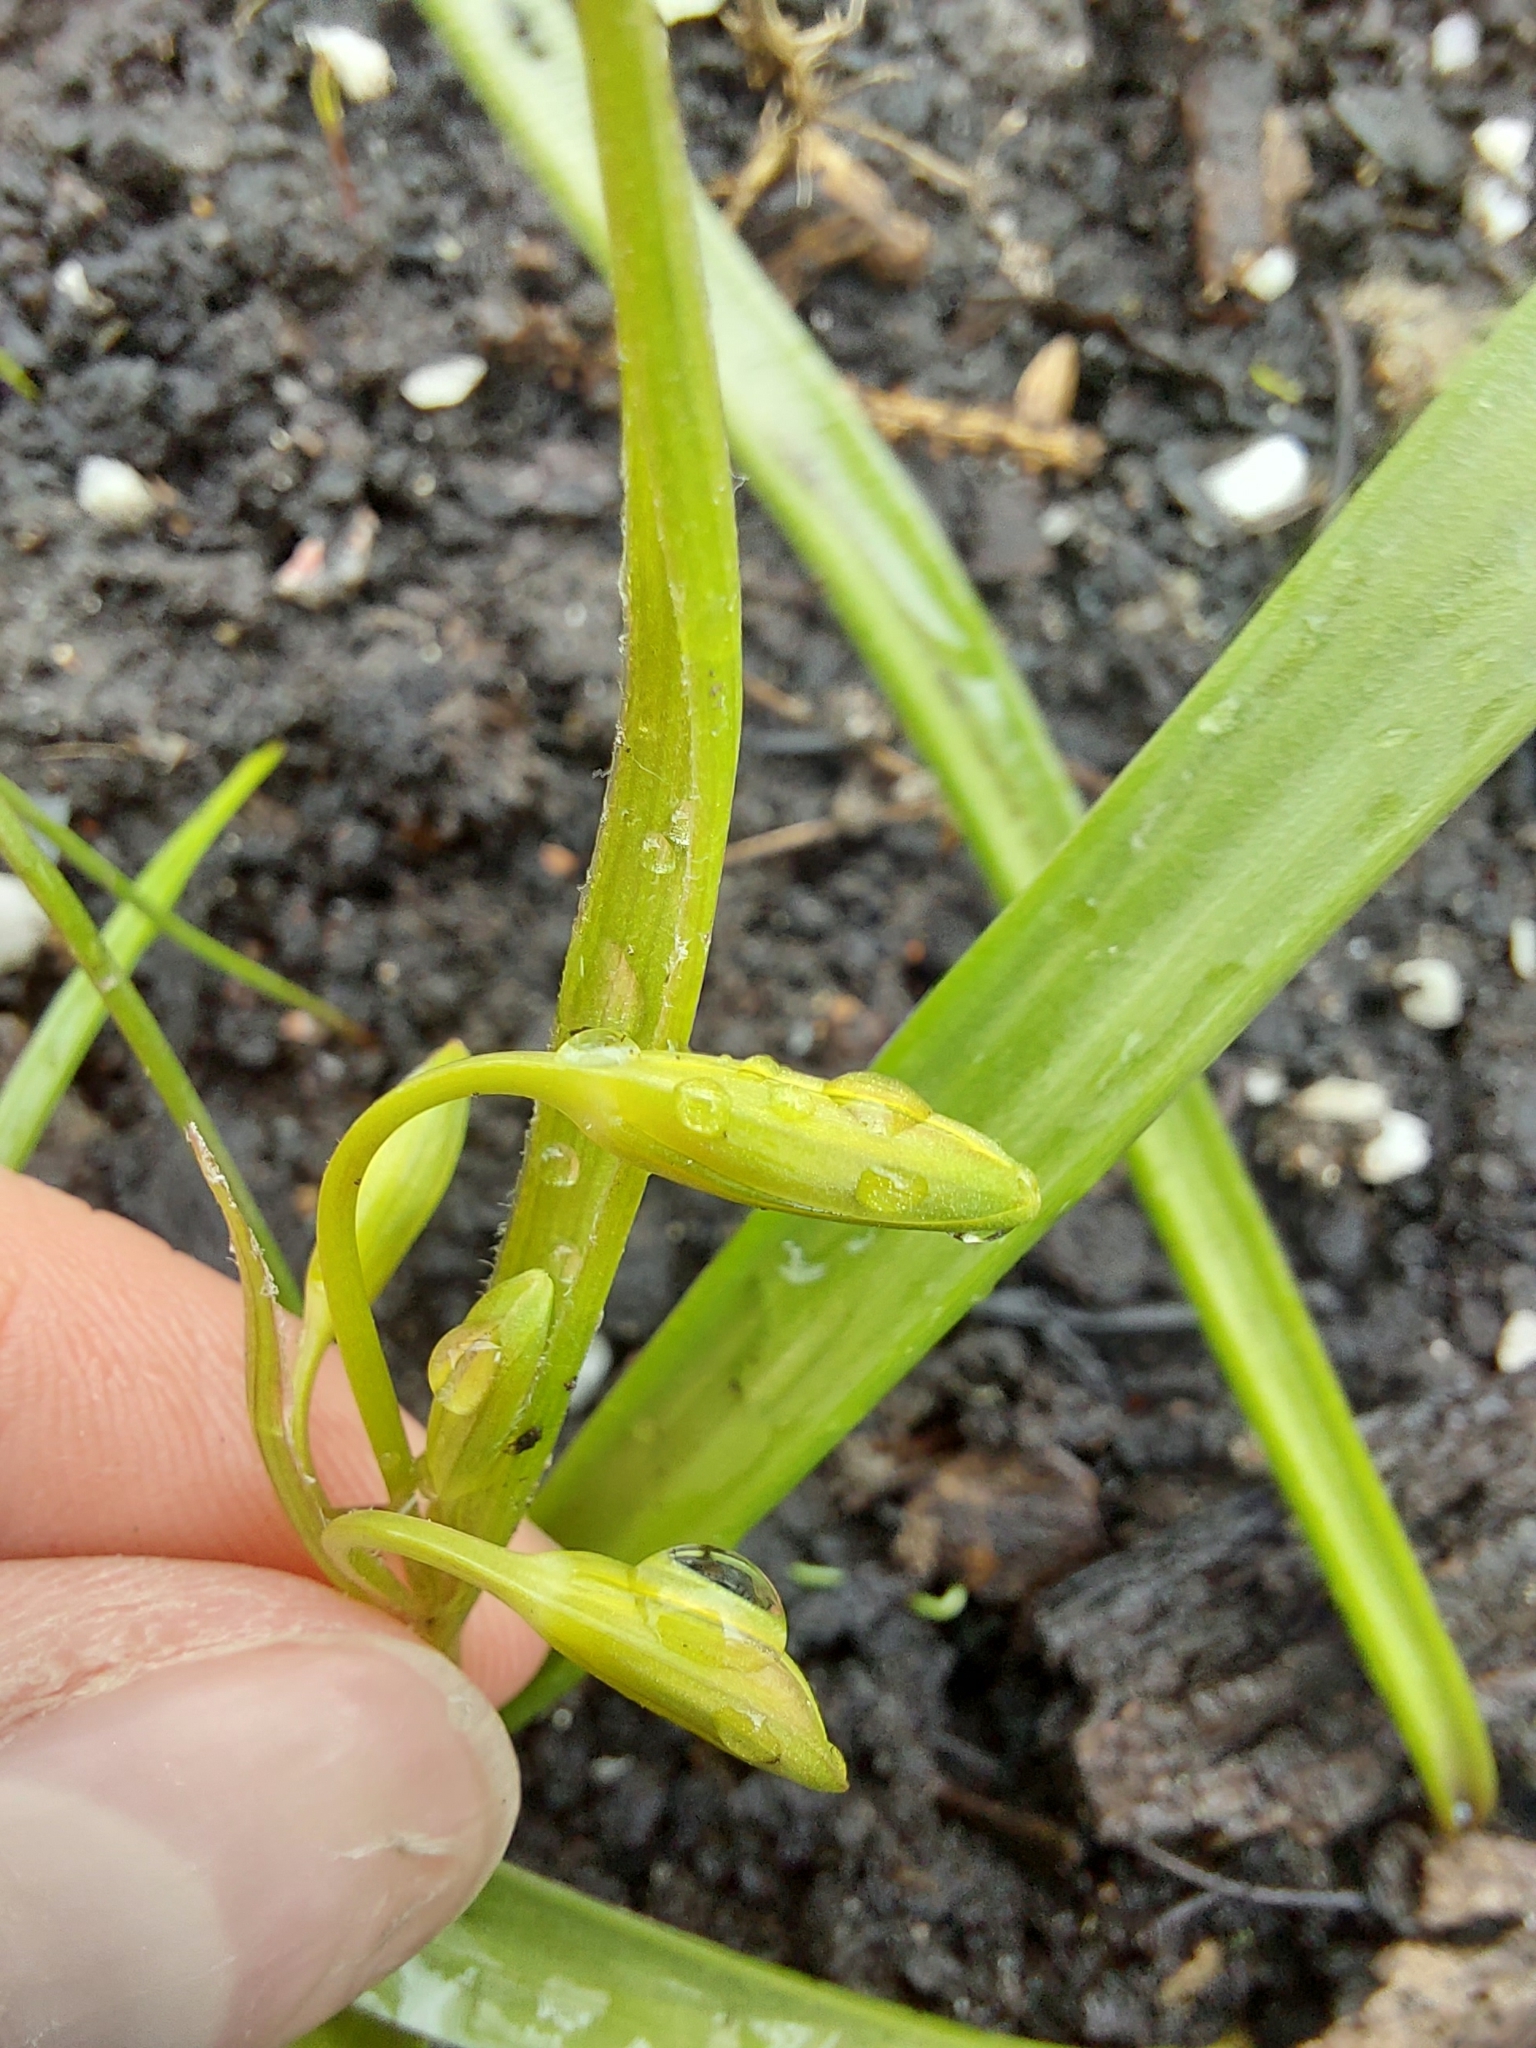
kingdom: Plantae
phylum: Tracheophyta
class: Liliopsida
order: Liliales
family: Liliaceae
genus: Gagea
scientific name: Gagea lutea
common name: Yellow star-of-bethlehem
